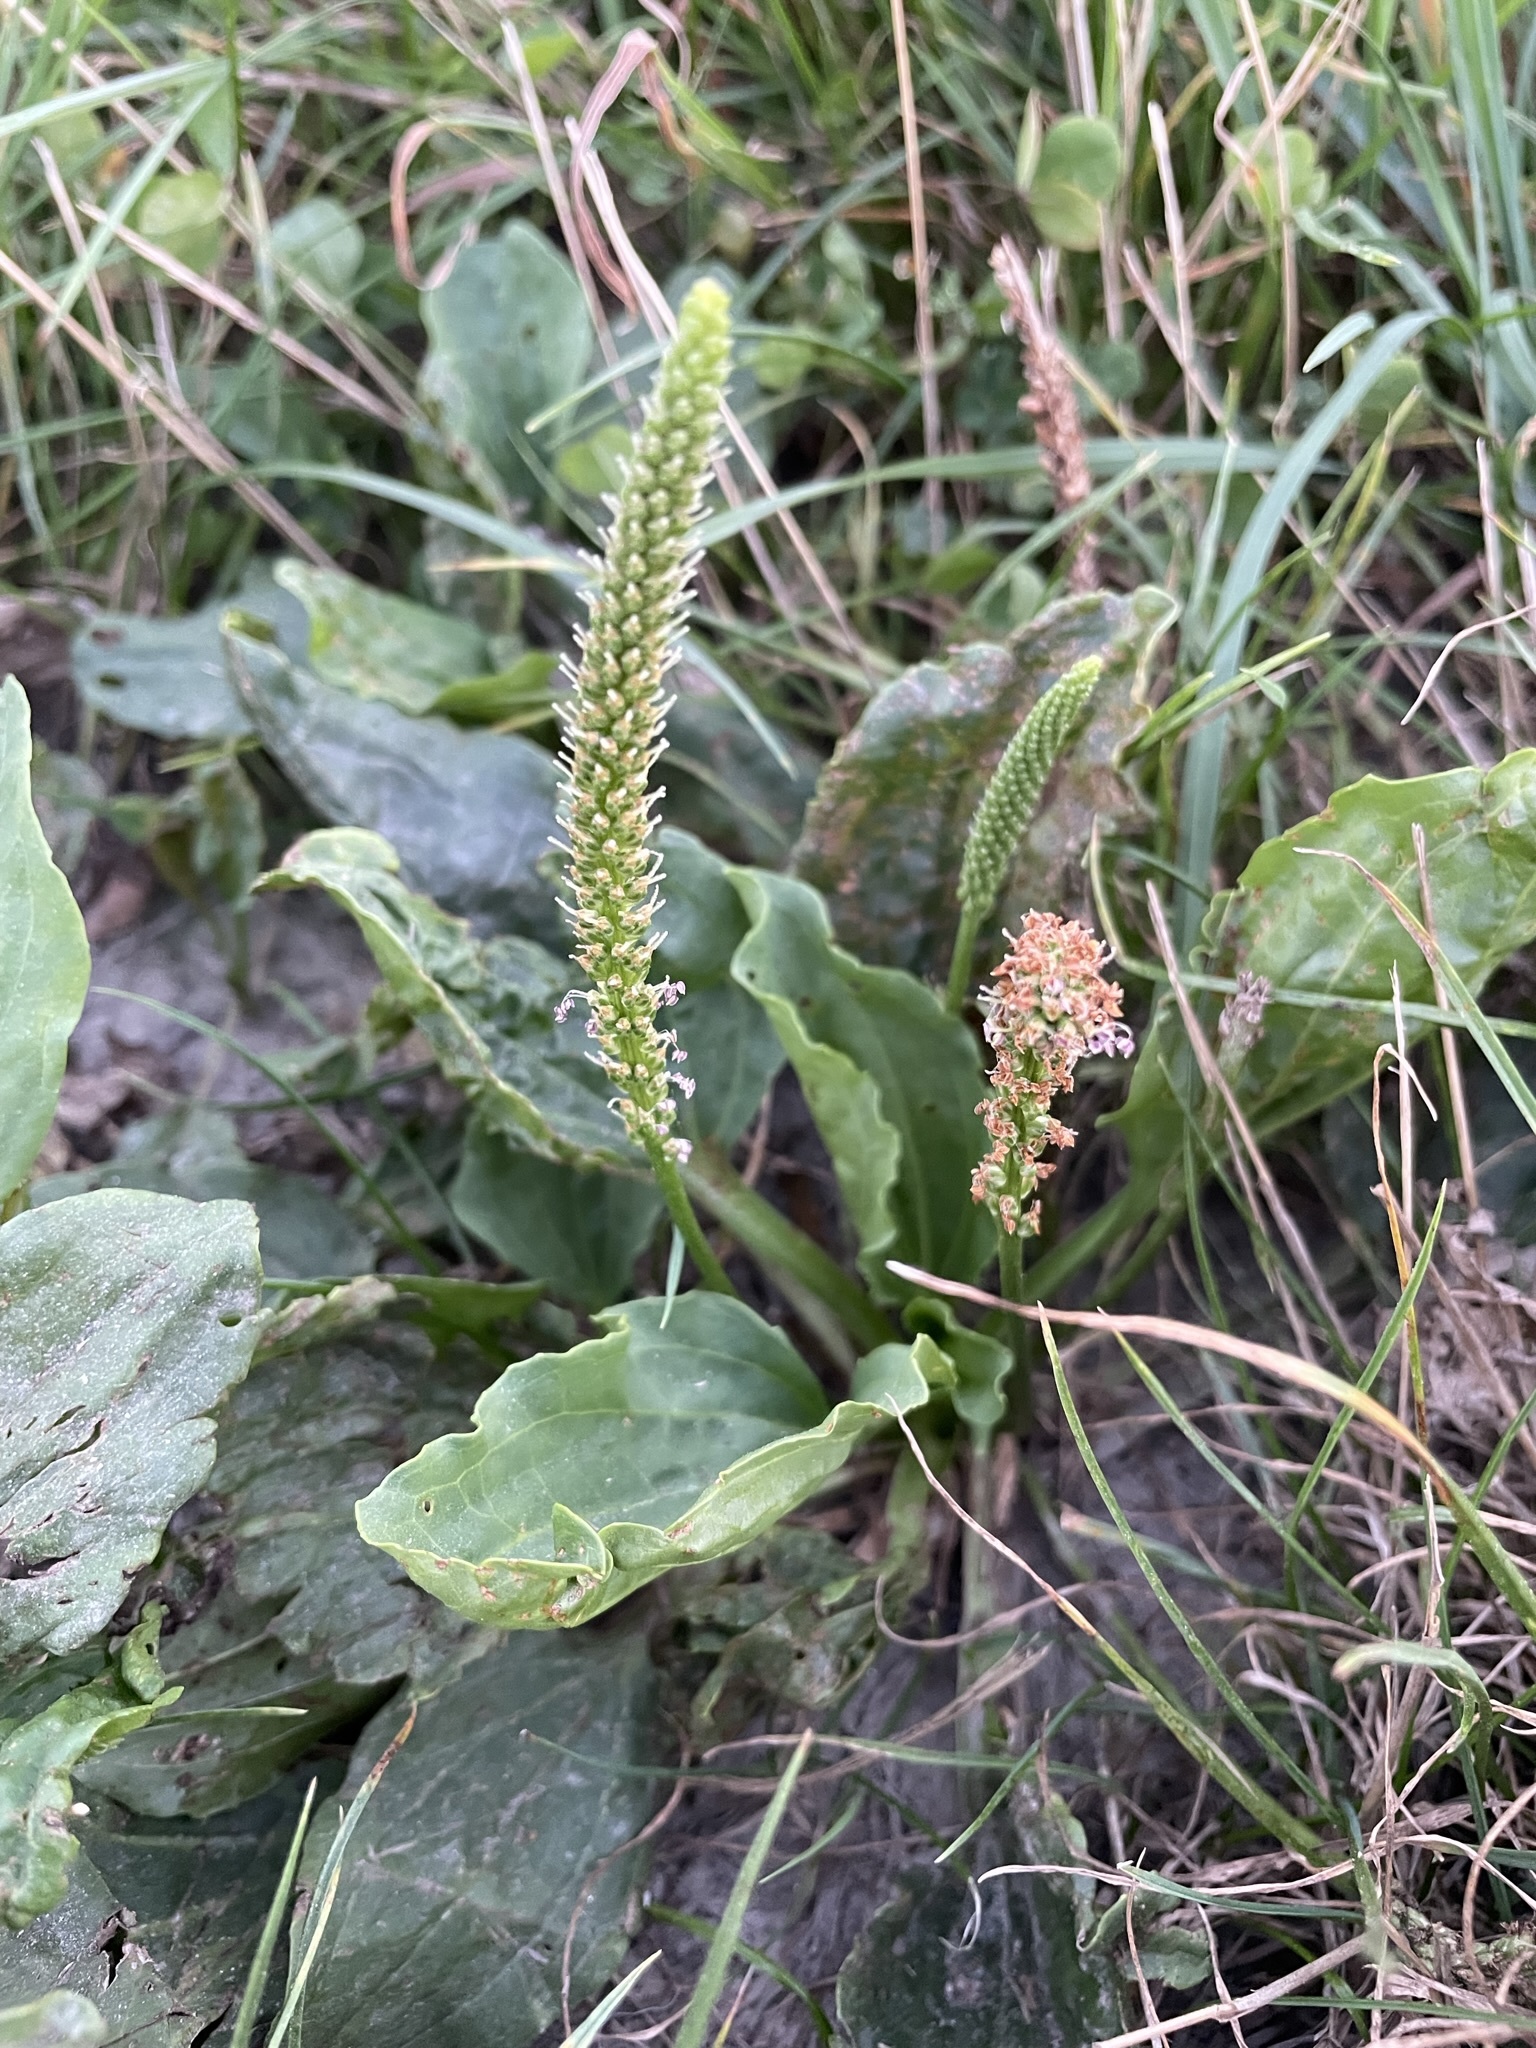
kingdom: Plantae
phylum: Tracheophyta
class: Magnoliopsida
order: Lamiales
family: Plantaginaceae
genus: Plantago
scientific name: Plantago major
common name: Common plantain
